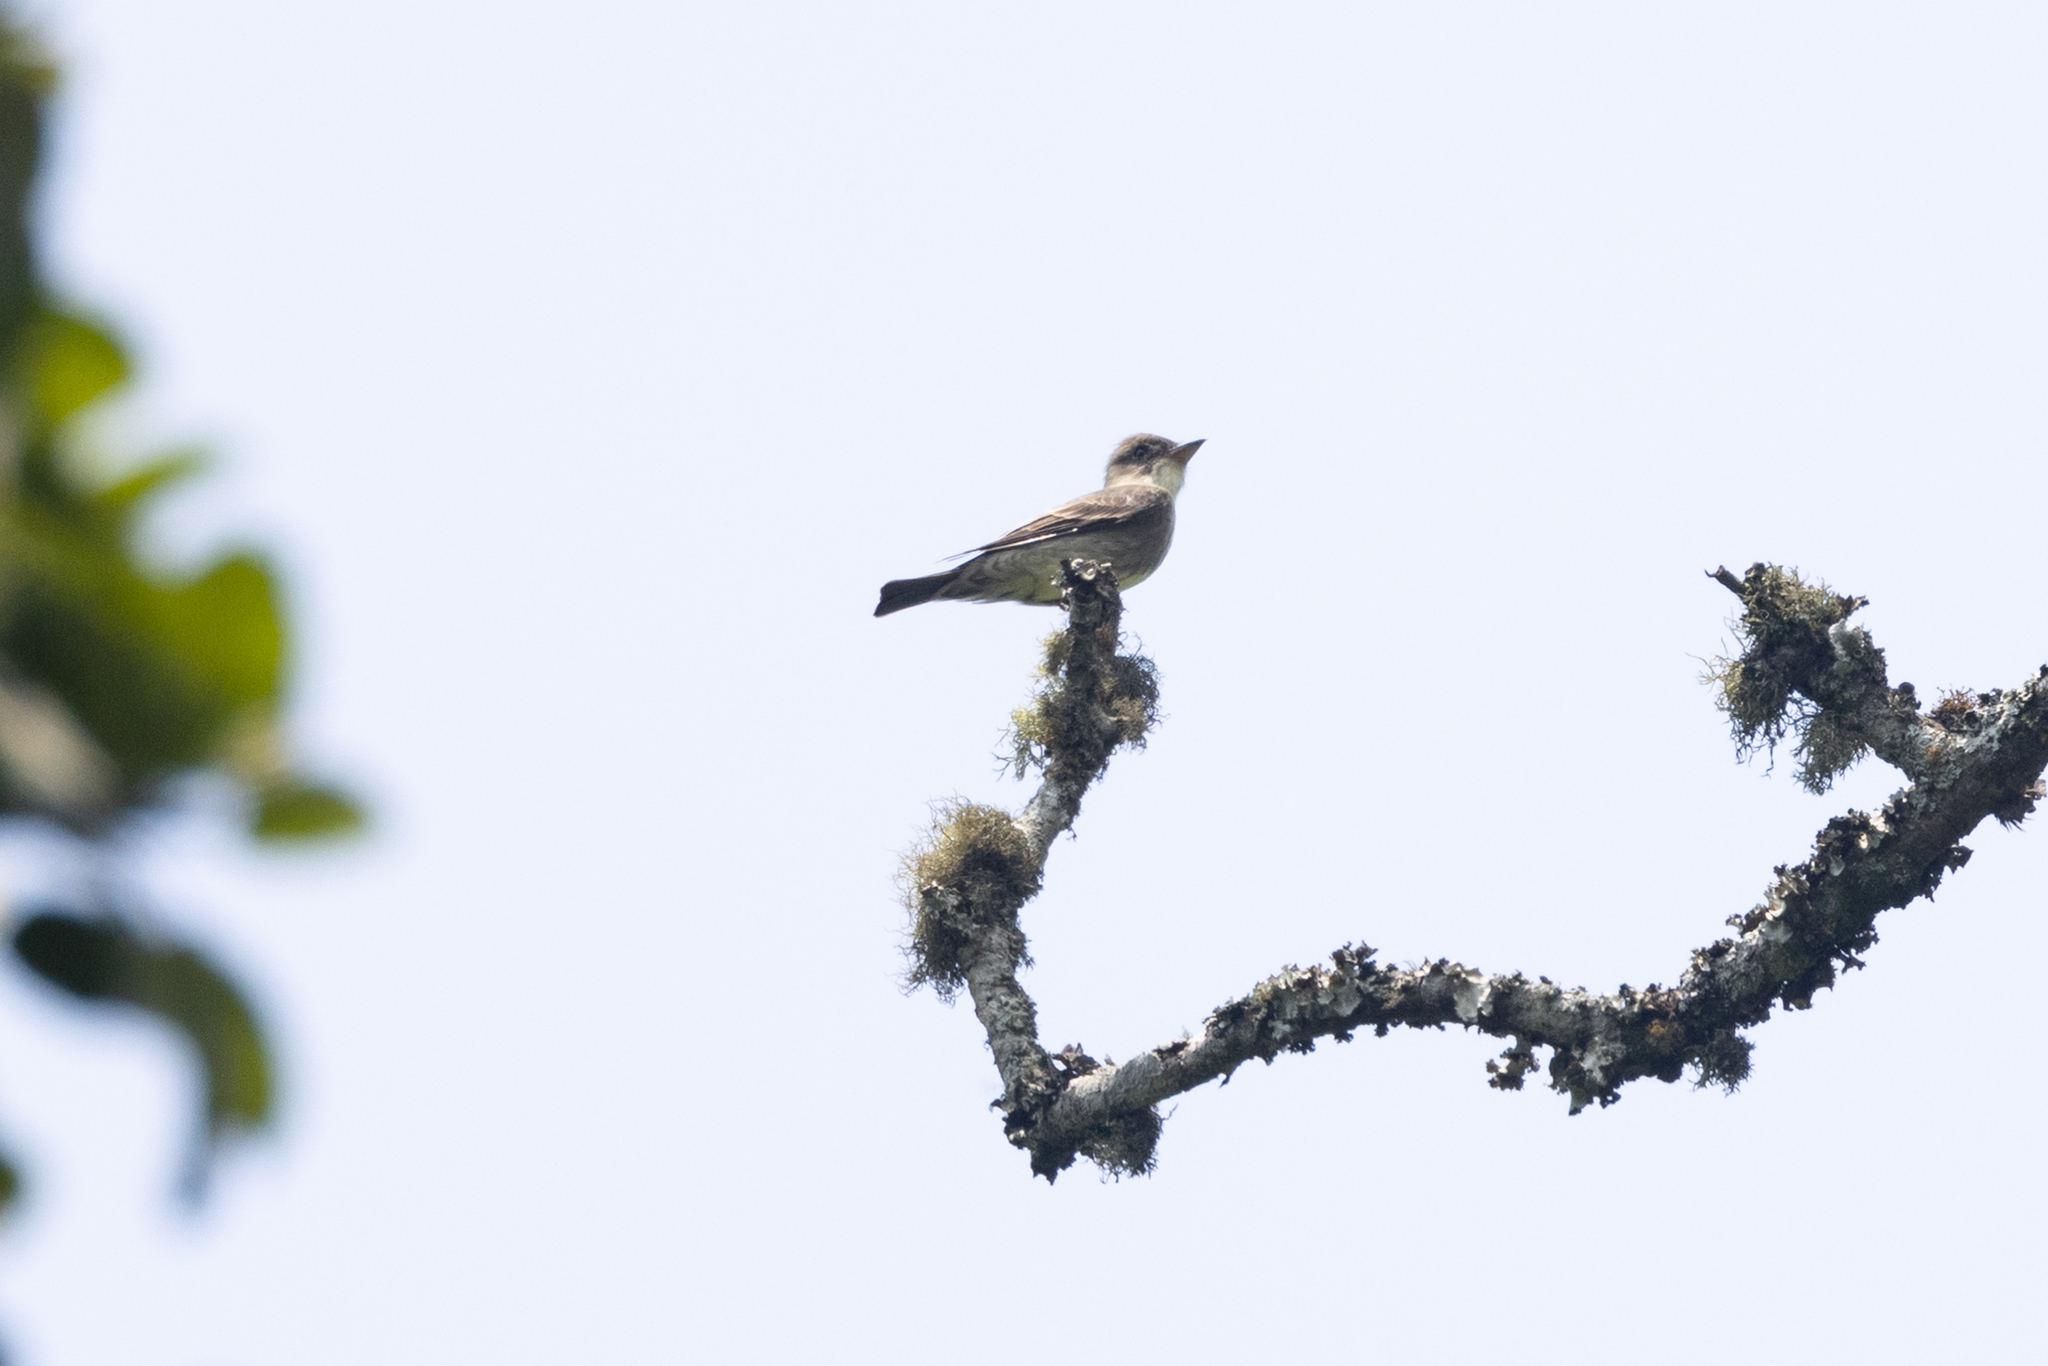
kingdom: Animalia
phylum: Chordata
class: Aves
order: Passeriformes
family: Tyrannidae
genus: Contopus
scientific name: Contopus cooperi
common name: Olive-sided flycatcher
